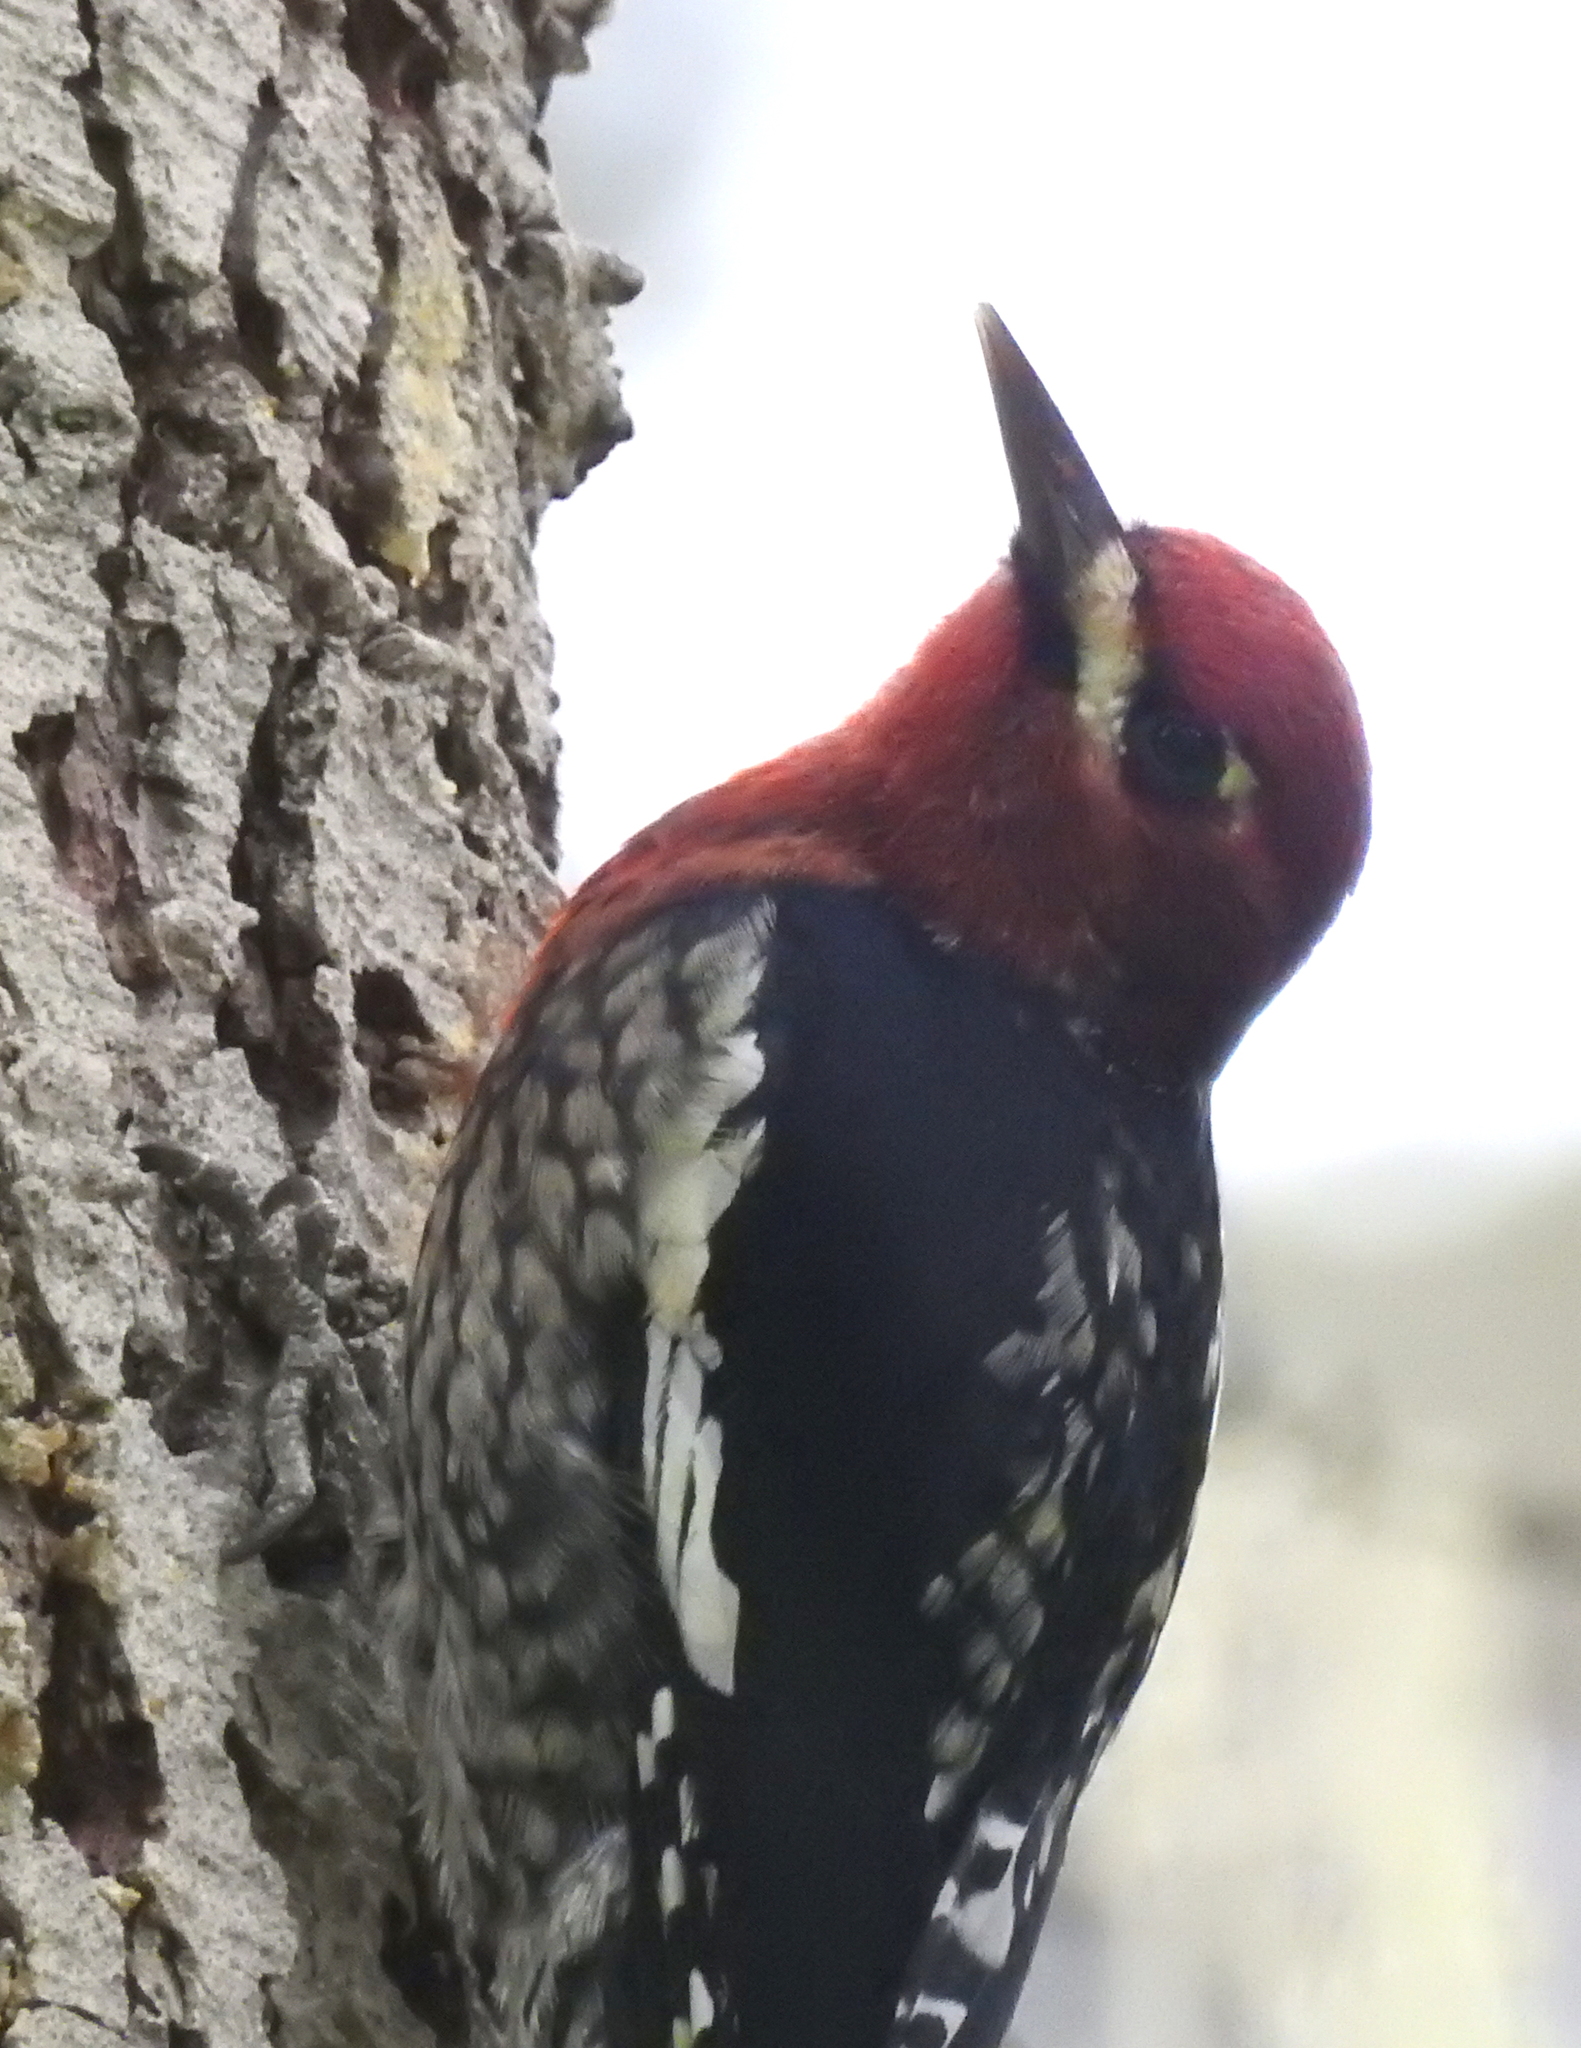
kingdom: Animalia
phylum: Chordata
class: Aves
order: Piciformes
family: Picidae
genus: Sphyrapicus
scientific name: Sphyrapicus ruber
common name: Red-breasted sapsucker
